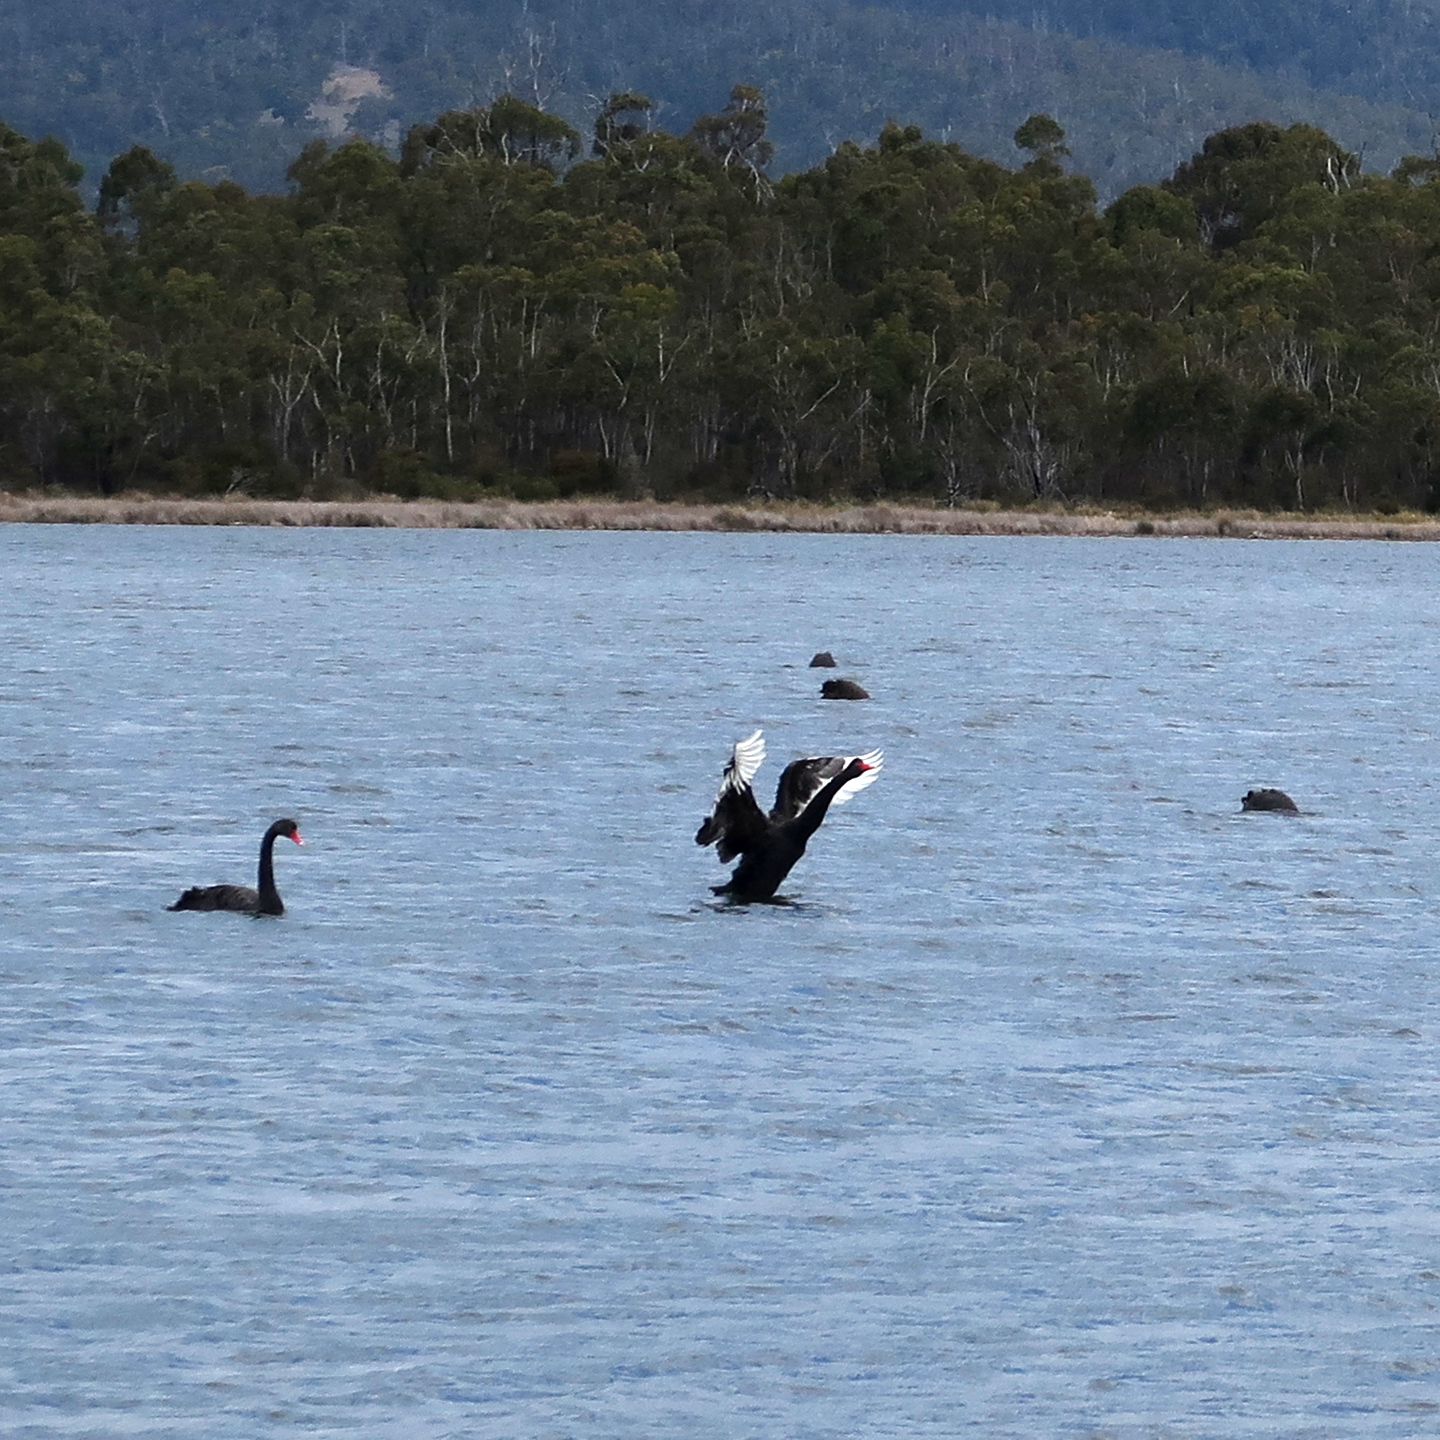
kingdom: Animalia
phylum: Chordata
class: Aves
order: Anseriformes
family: Anatidae
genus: Cygnus
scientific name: Cygnus atratus
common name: Black swan
